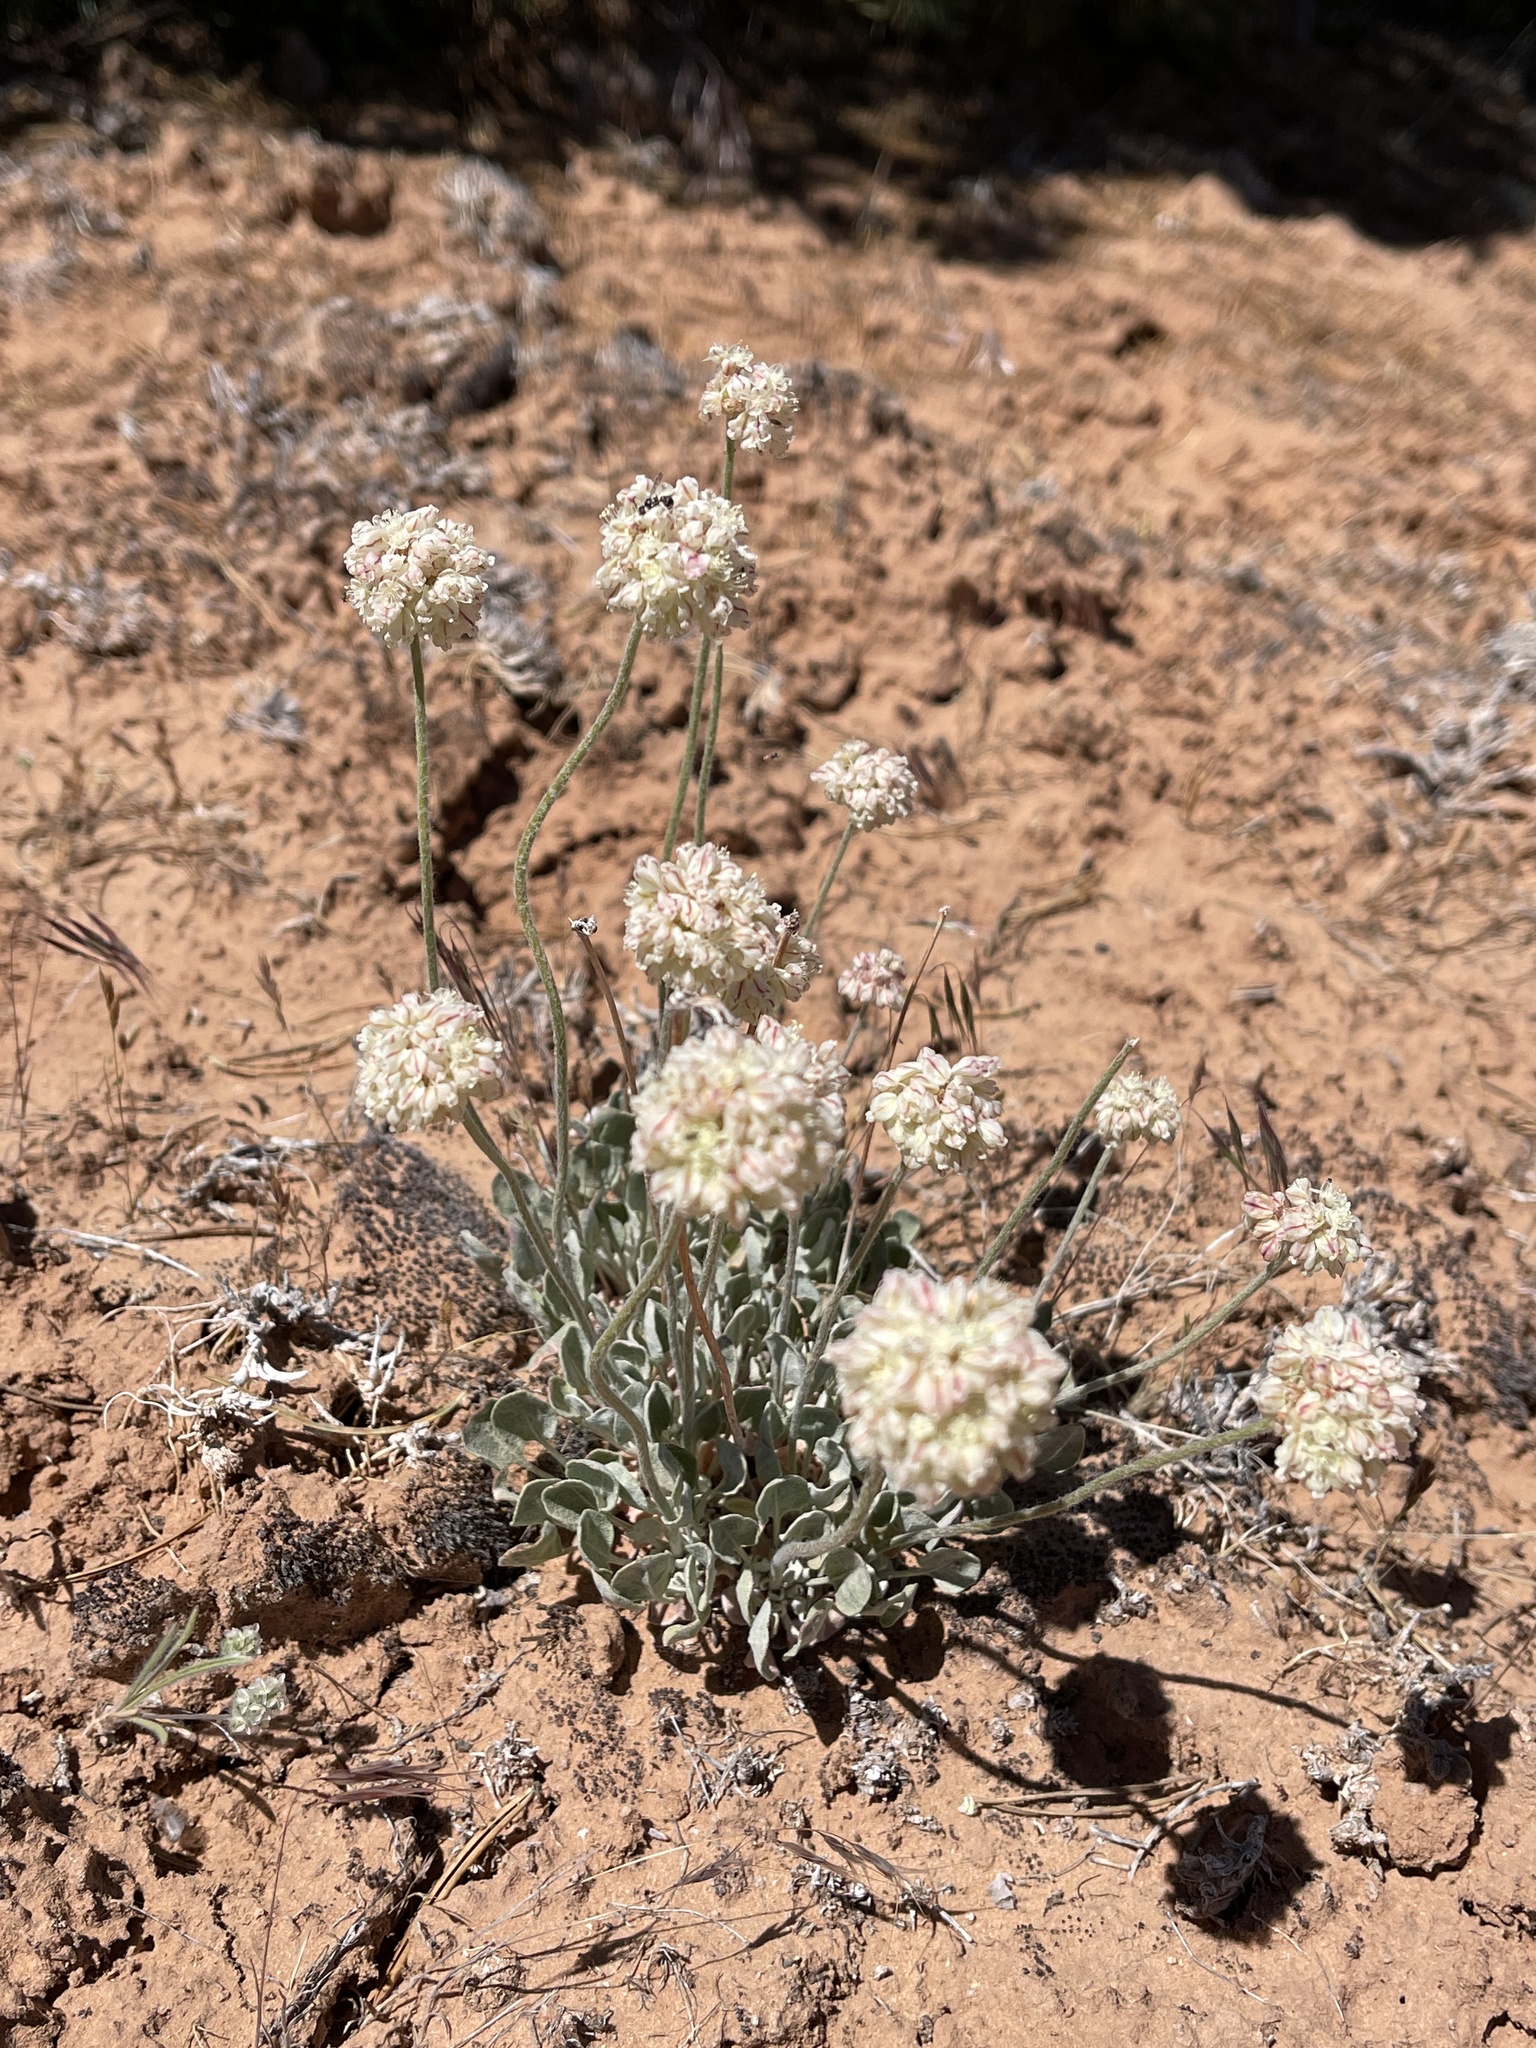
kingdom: Plantae
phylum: Tracheophyta
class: Magnoliopsida
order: Caryophyllales
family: Polygonaceae
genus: Eriogonum
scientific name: Eriogonum ovalifolium
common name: Cushion buckwheat
